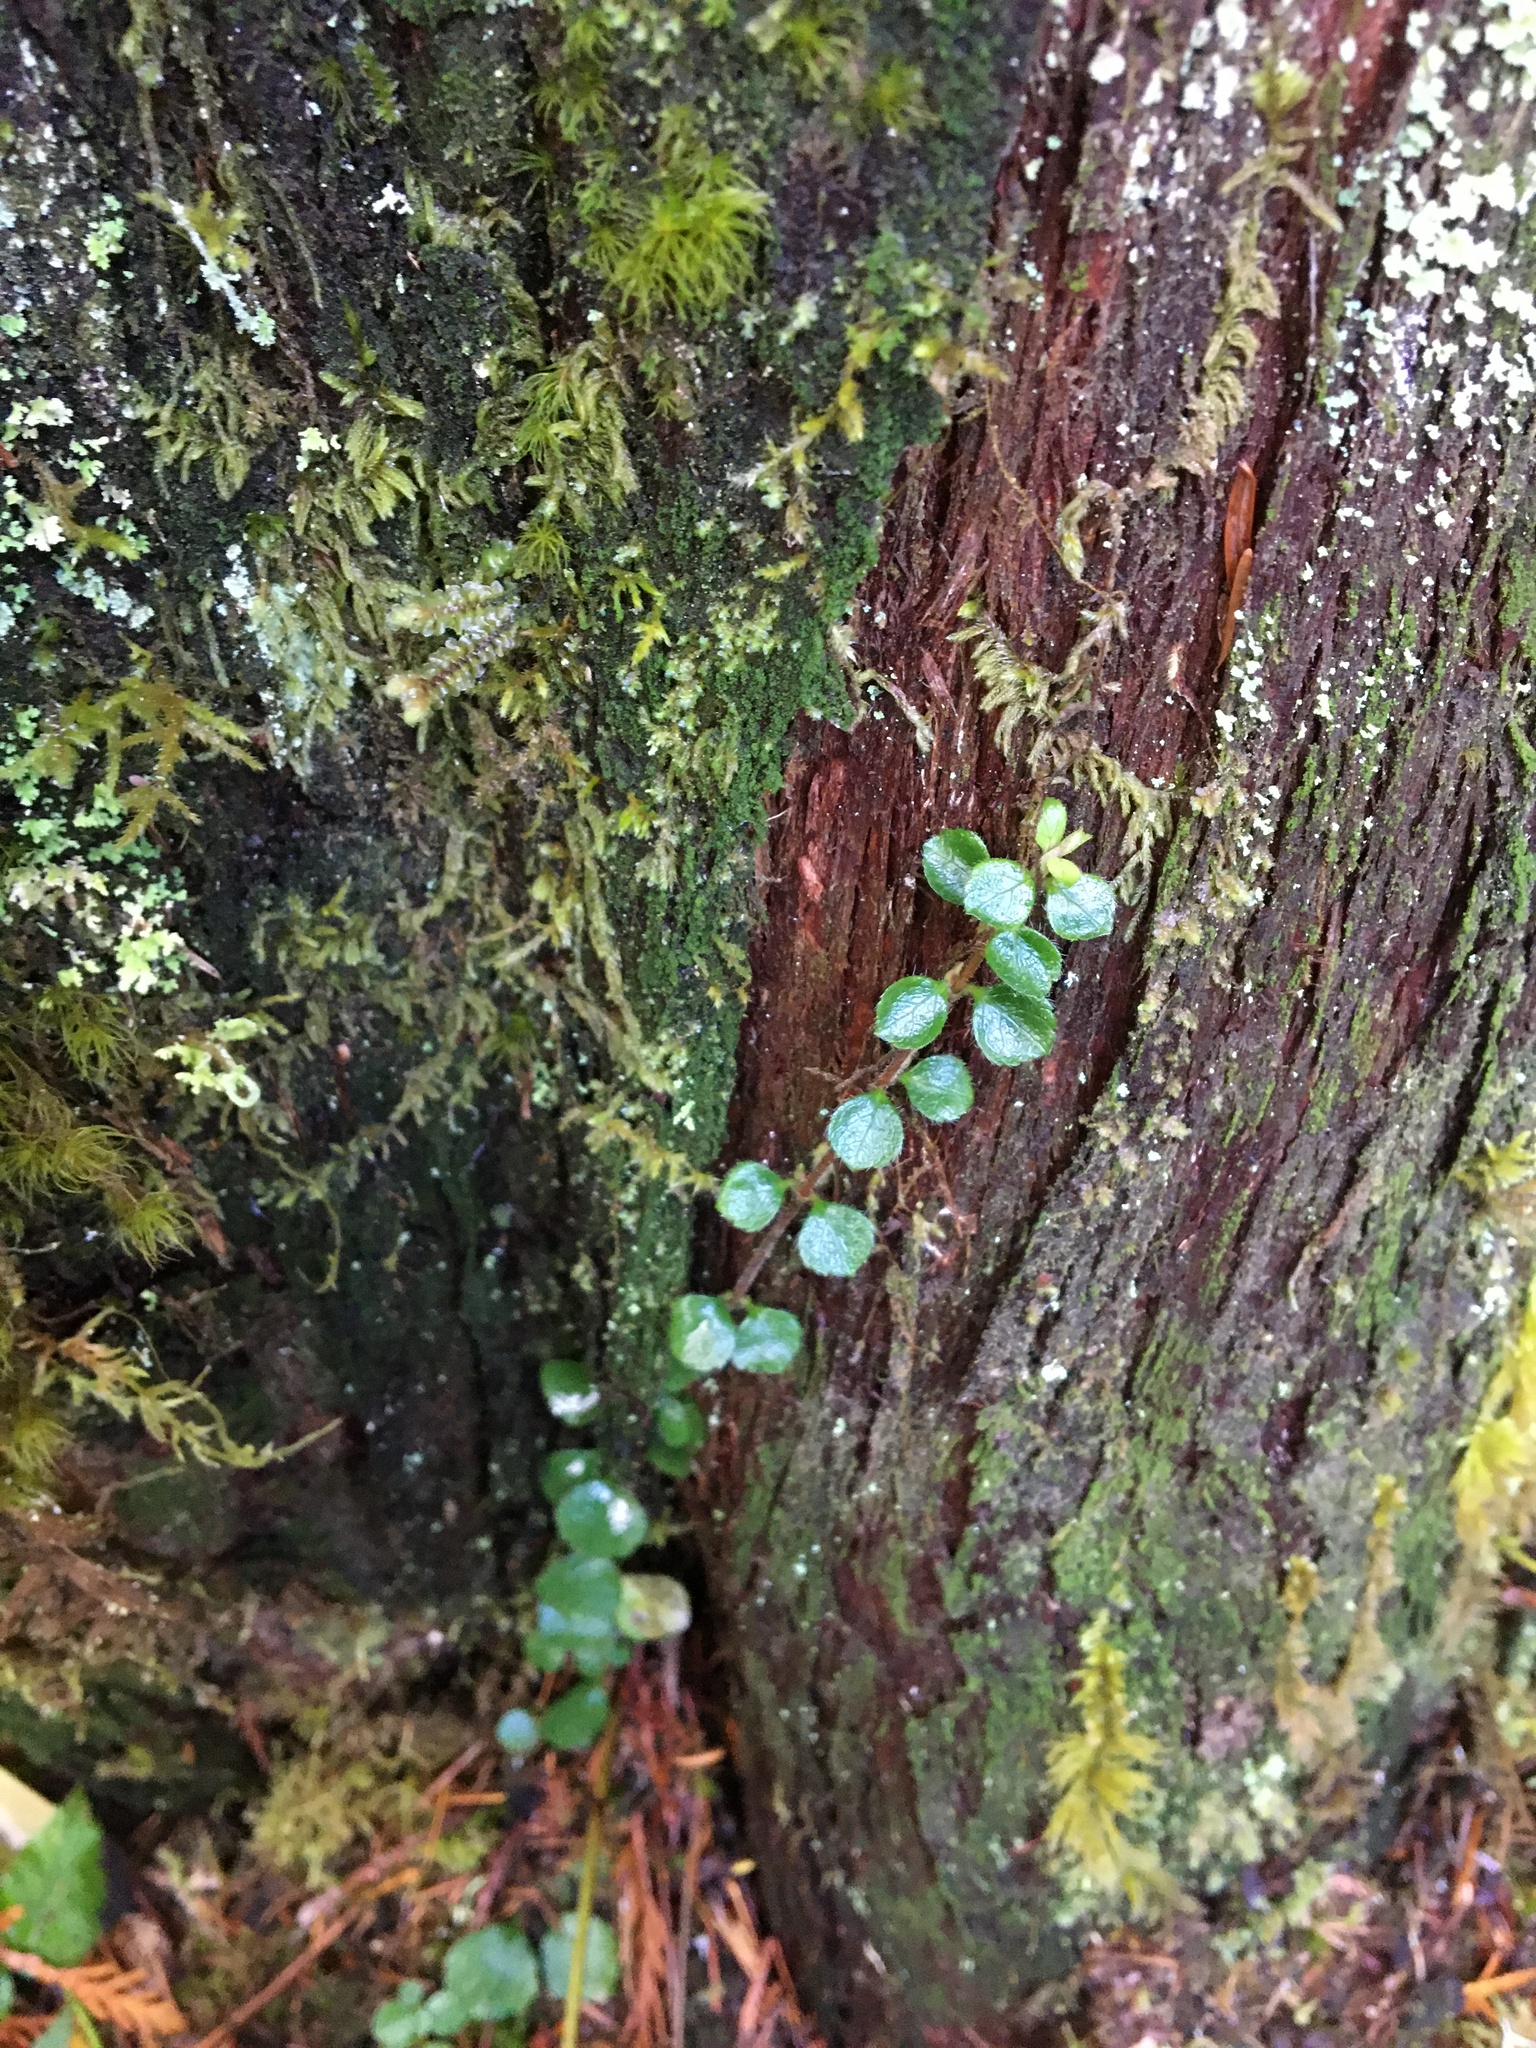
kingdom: Plantae
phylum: Tracheophyta
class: Magnoliopsida
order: Dipsacales
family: Caprifoliaceae
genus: Linnaea
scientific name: Linnaea borealis
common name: Twinflower
